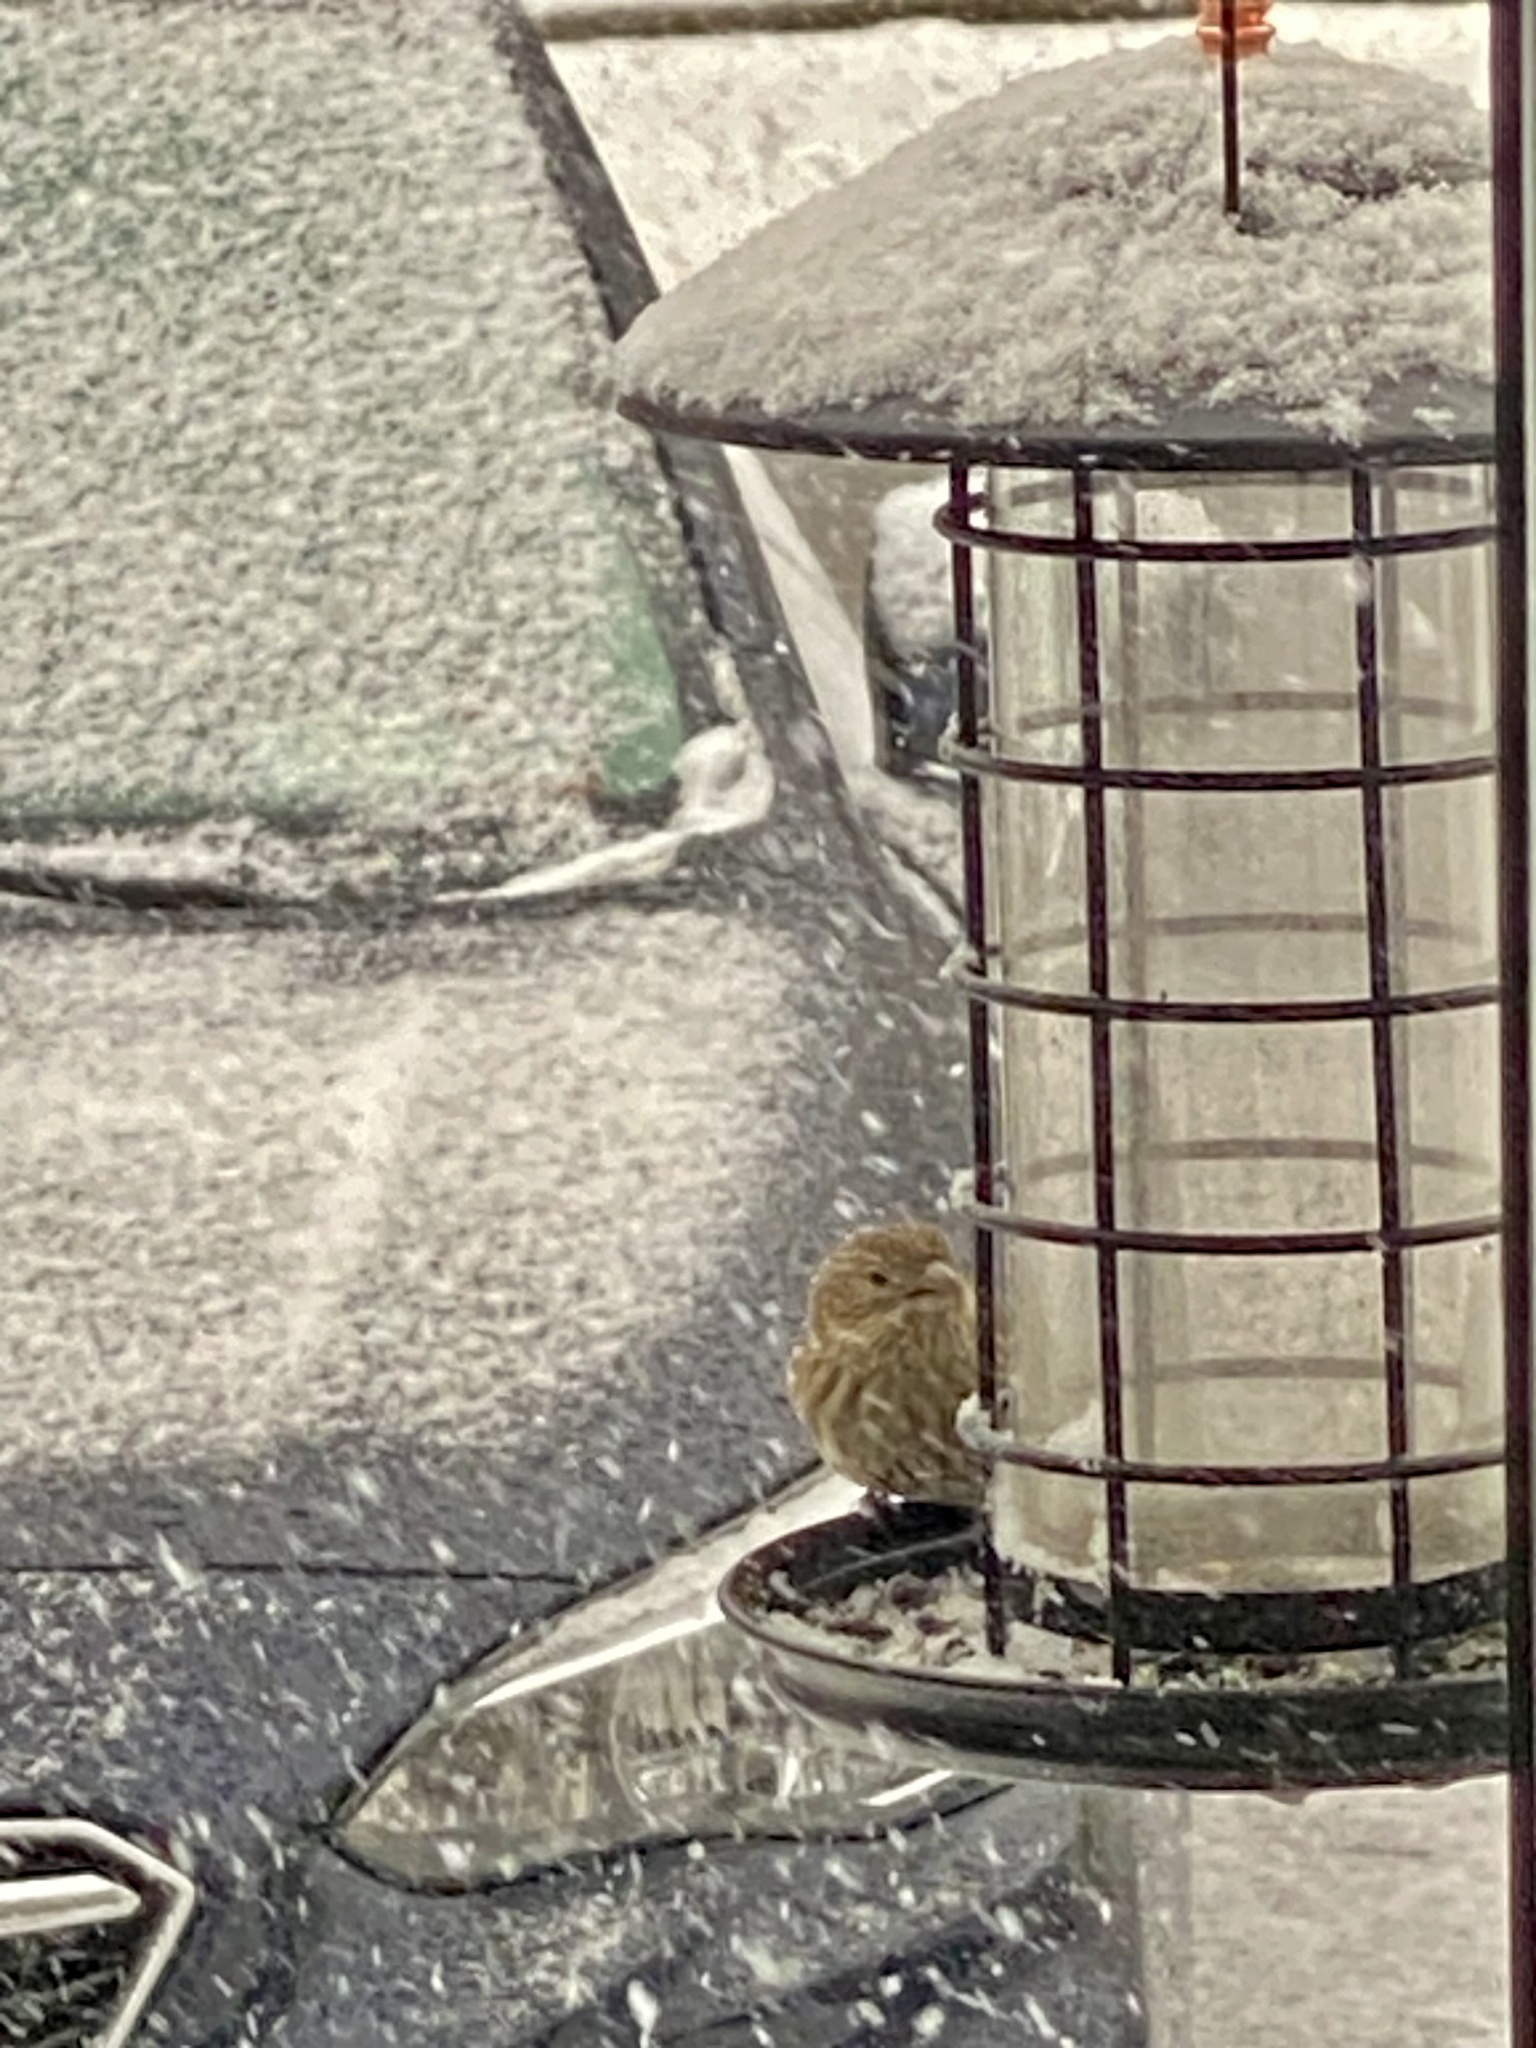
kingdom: Animalia
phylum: Chordata
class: Aves
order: Passeriformes
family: Fringillidae
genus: Haemorhous
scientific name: Haemorhous mexicanus
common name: House finch
